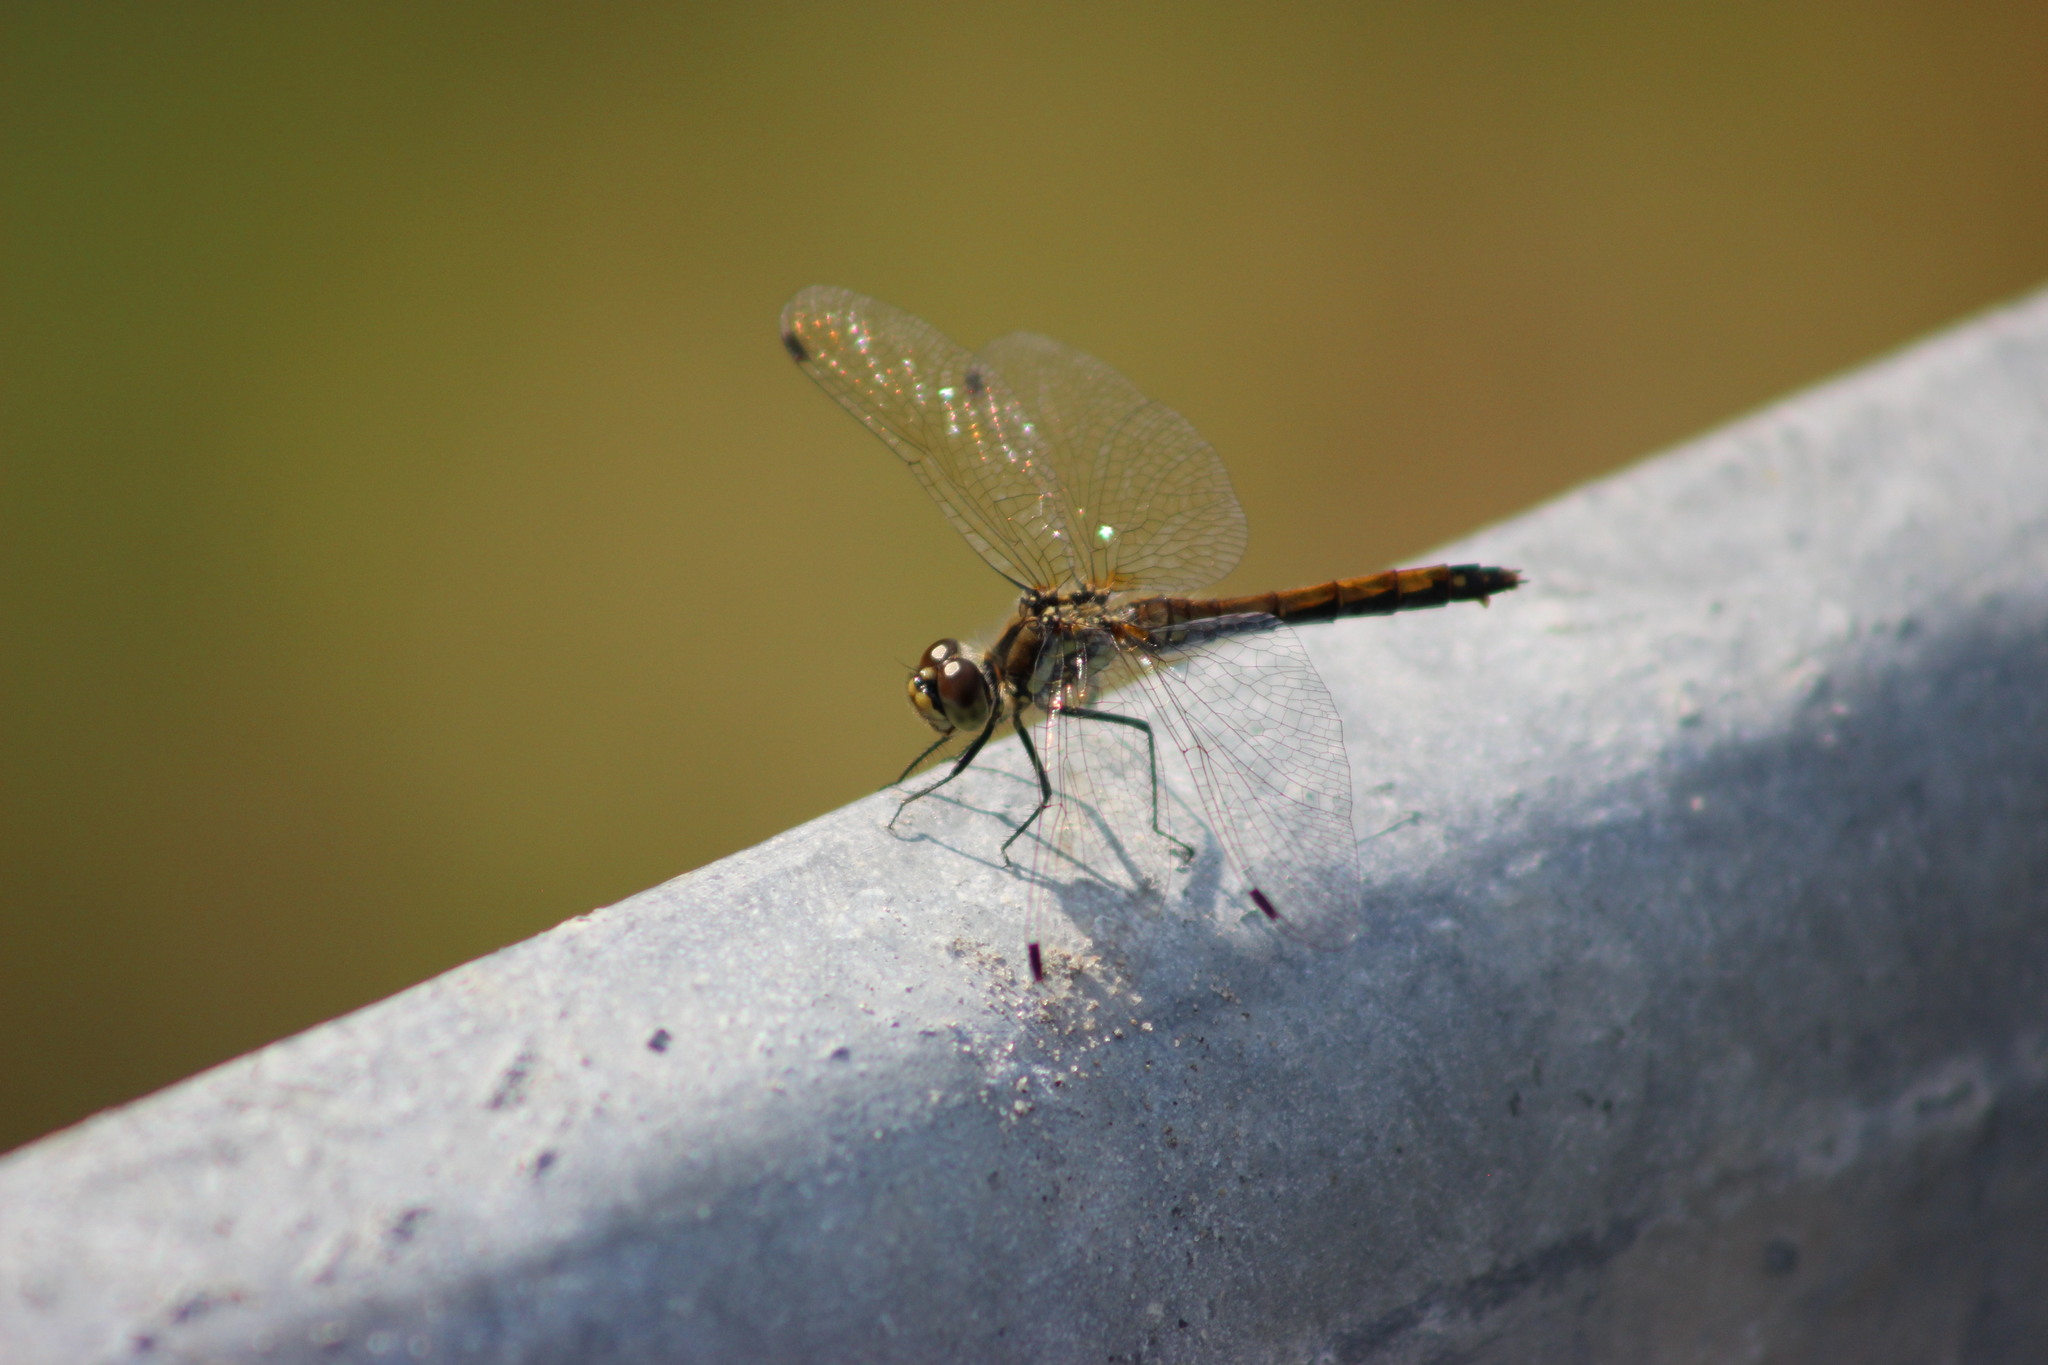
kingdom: Animalia
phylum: Arthropoda
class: Insecta
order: Odonata
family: Libellulidae
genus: Sympetrum
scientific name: Sympetrum danae
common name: Black darter
